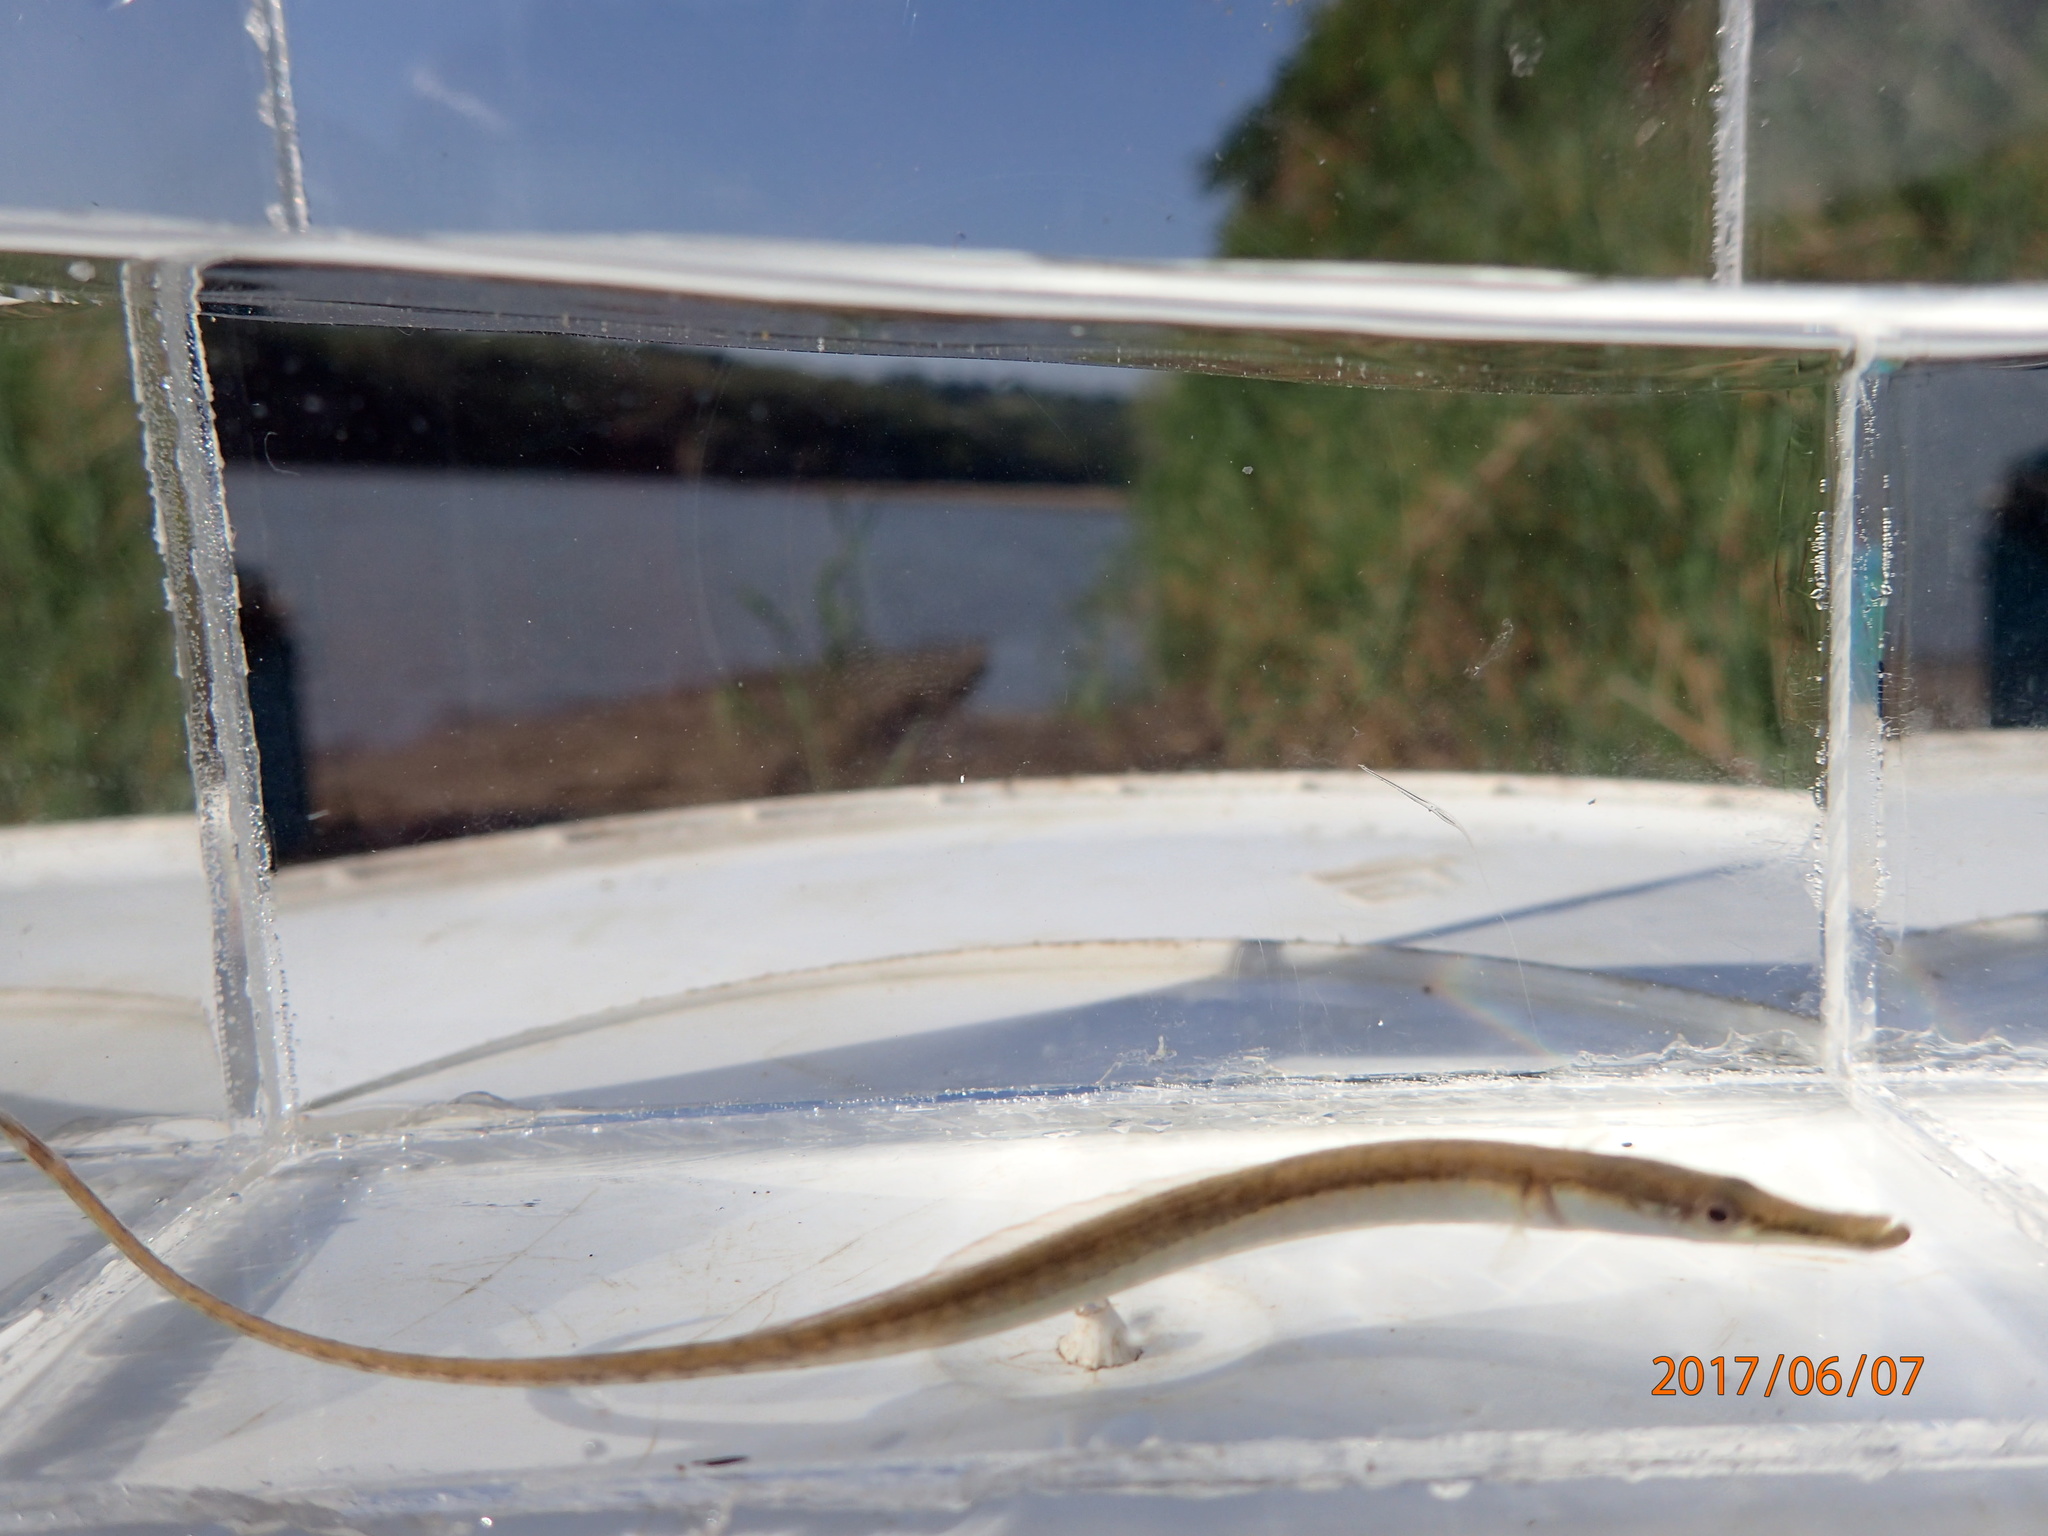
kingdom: Animalia
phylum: Chordata
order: Syngnathiformes
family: Syngnathidae
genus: Microphis
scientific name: Microphis fluviatilis
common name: Freshwater pipefish
